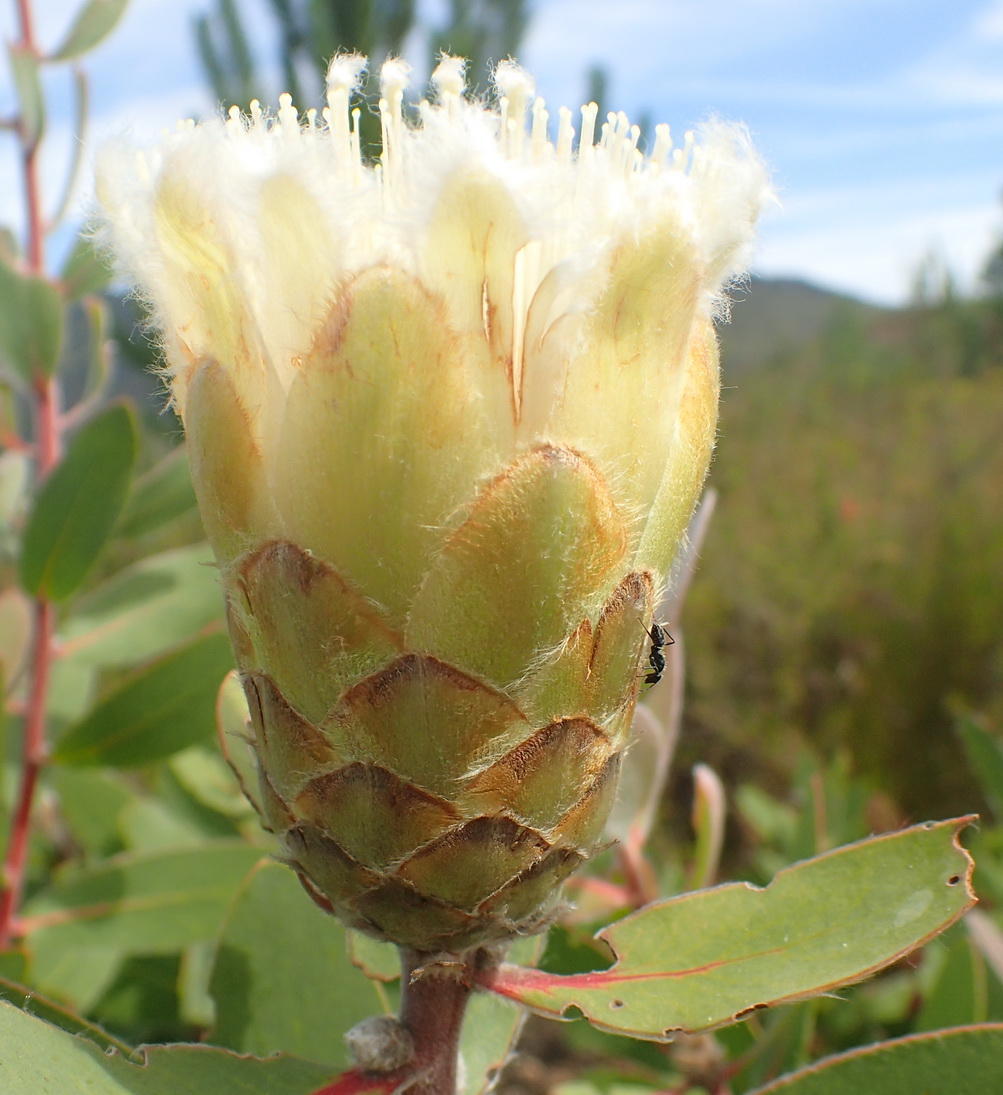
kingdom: Plantae
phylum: Tracheophyta
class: Magnoliopsida
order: Proteales
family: Proteaceae
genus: Protea
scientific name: Protea mundii
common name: Forest sugarbush
